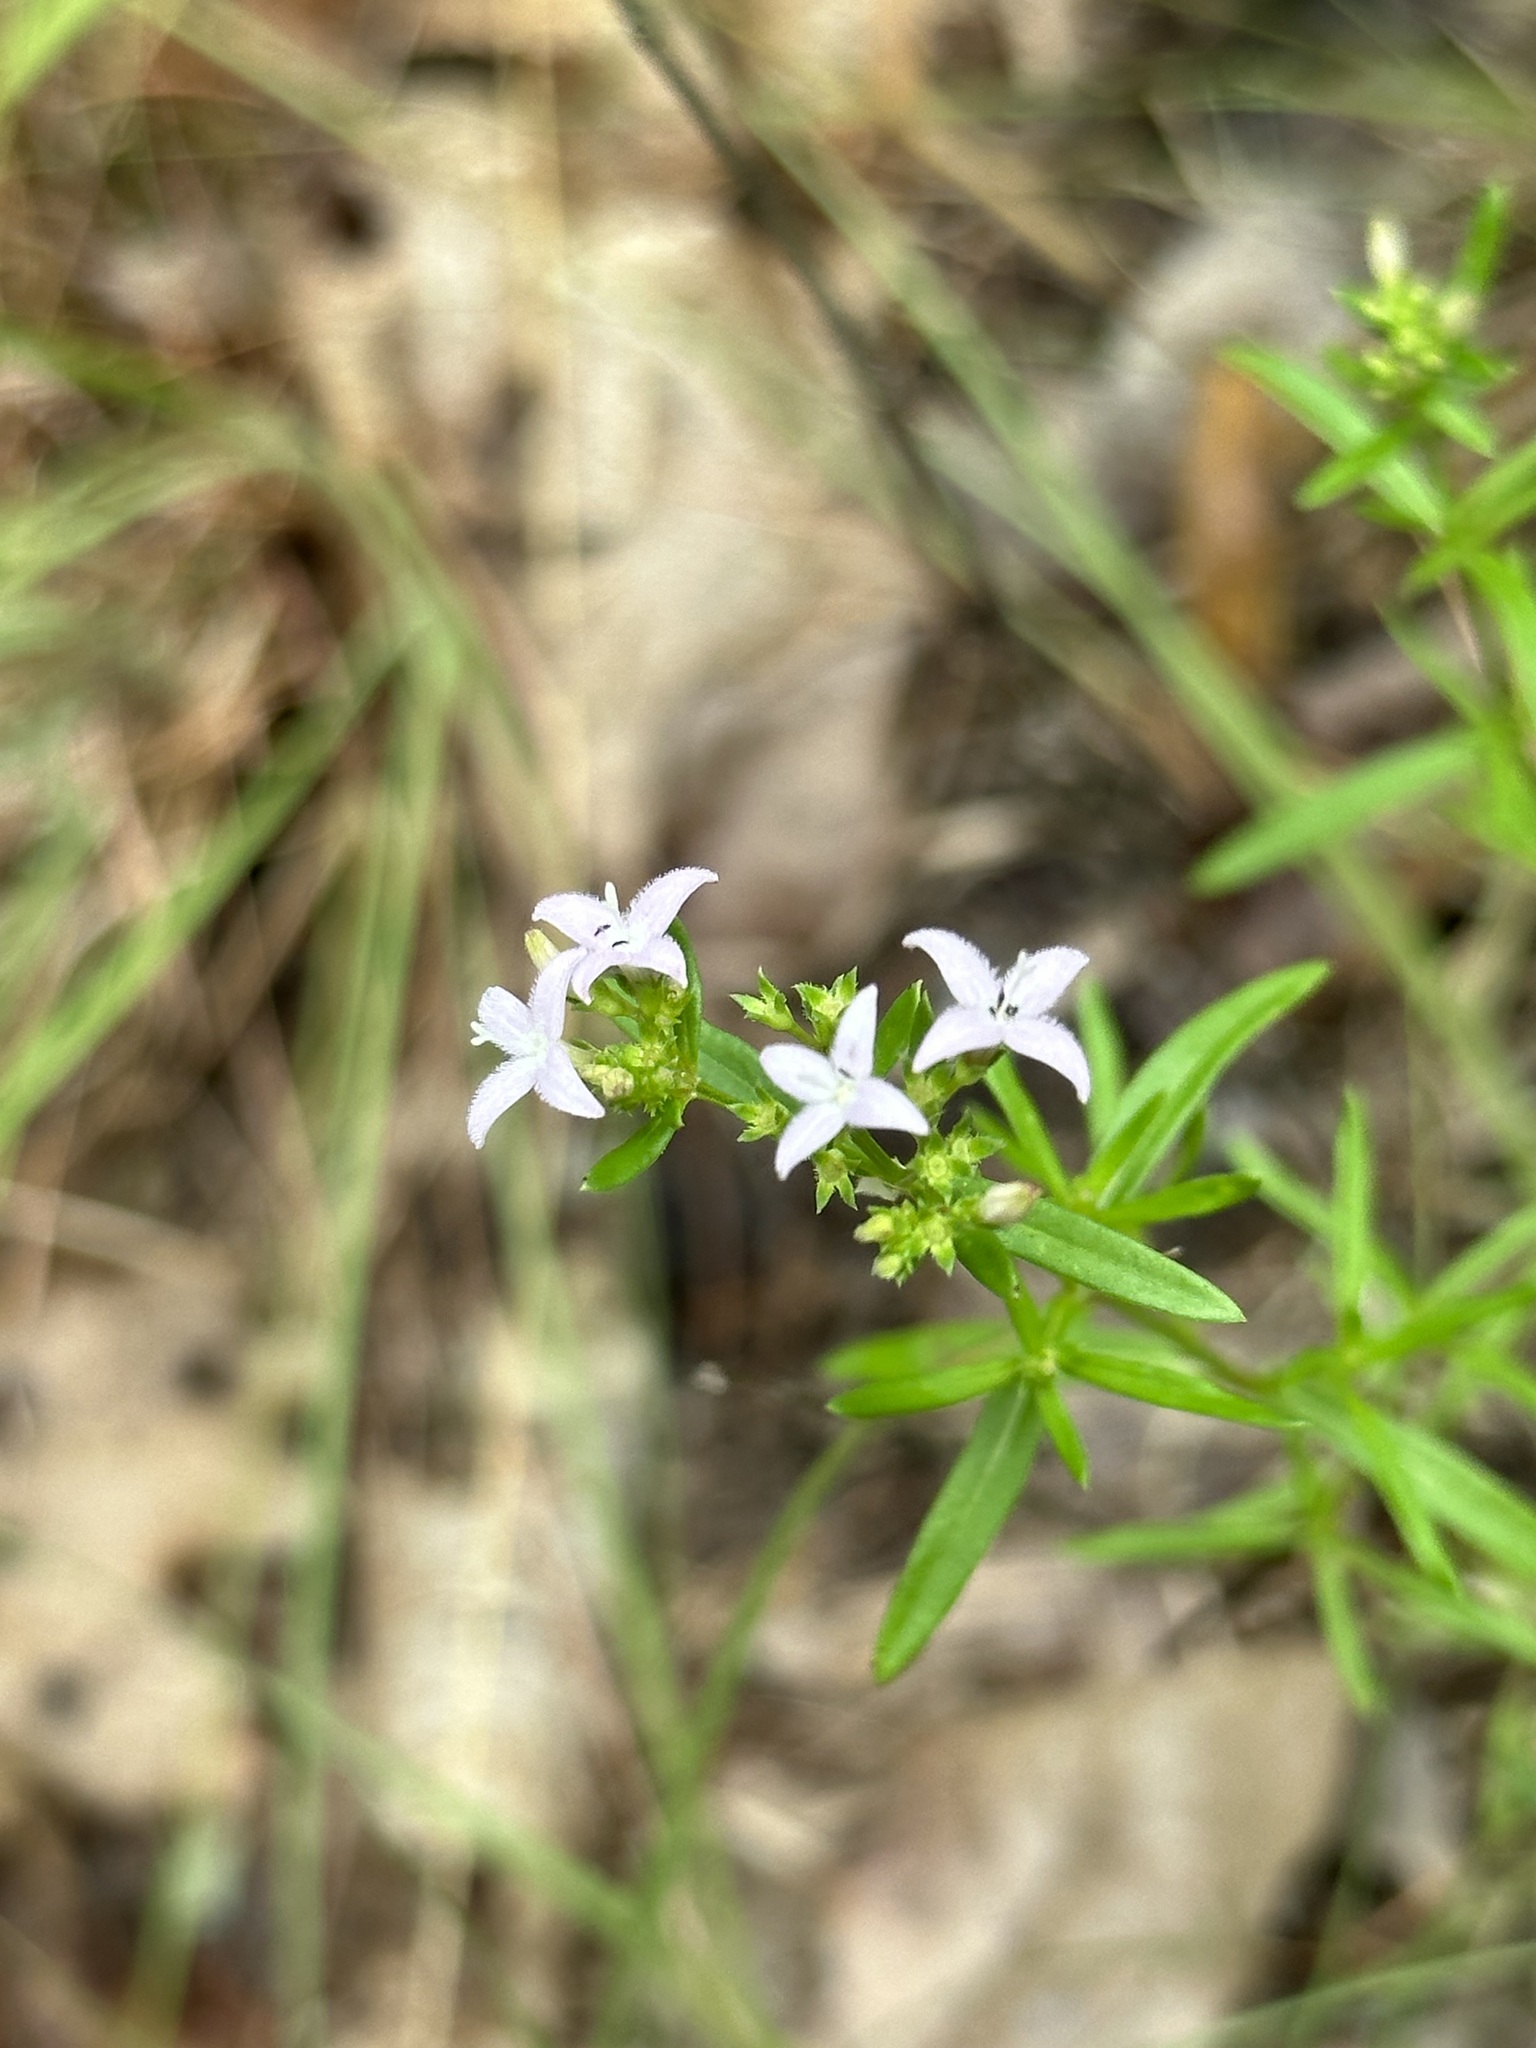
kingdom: Plantae
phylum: Tracheophyta
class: Magnoliopsida
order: Gentianales
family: Rubiaceae
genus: Stenaria
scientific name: Stenaria nigricans
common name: Diamondflowers
